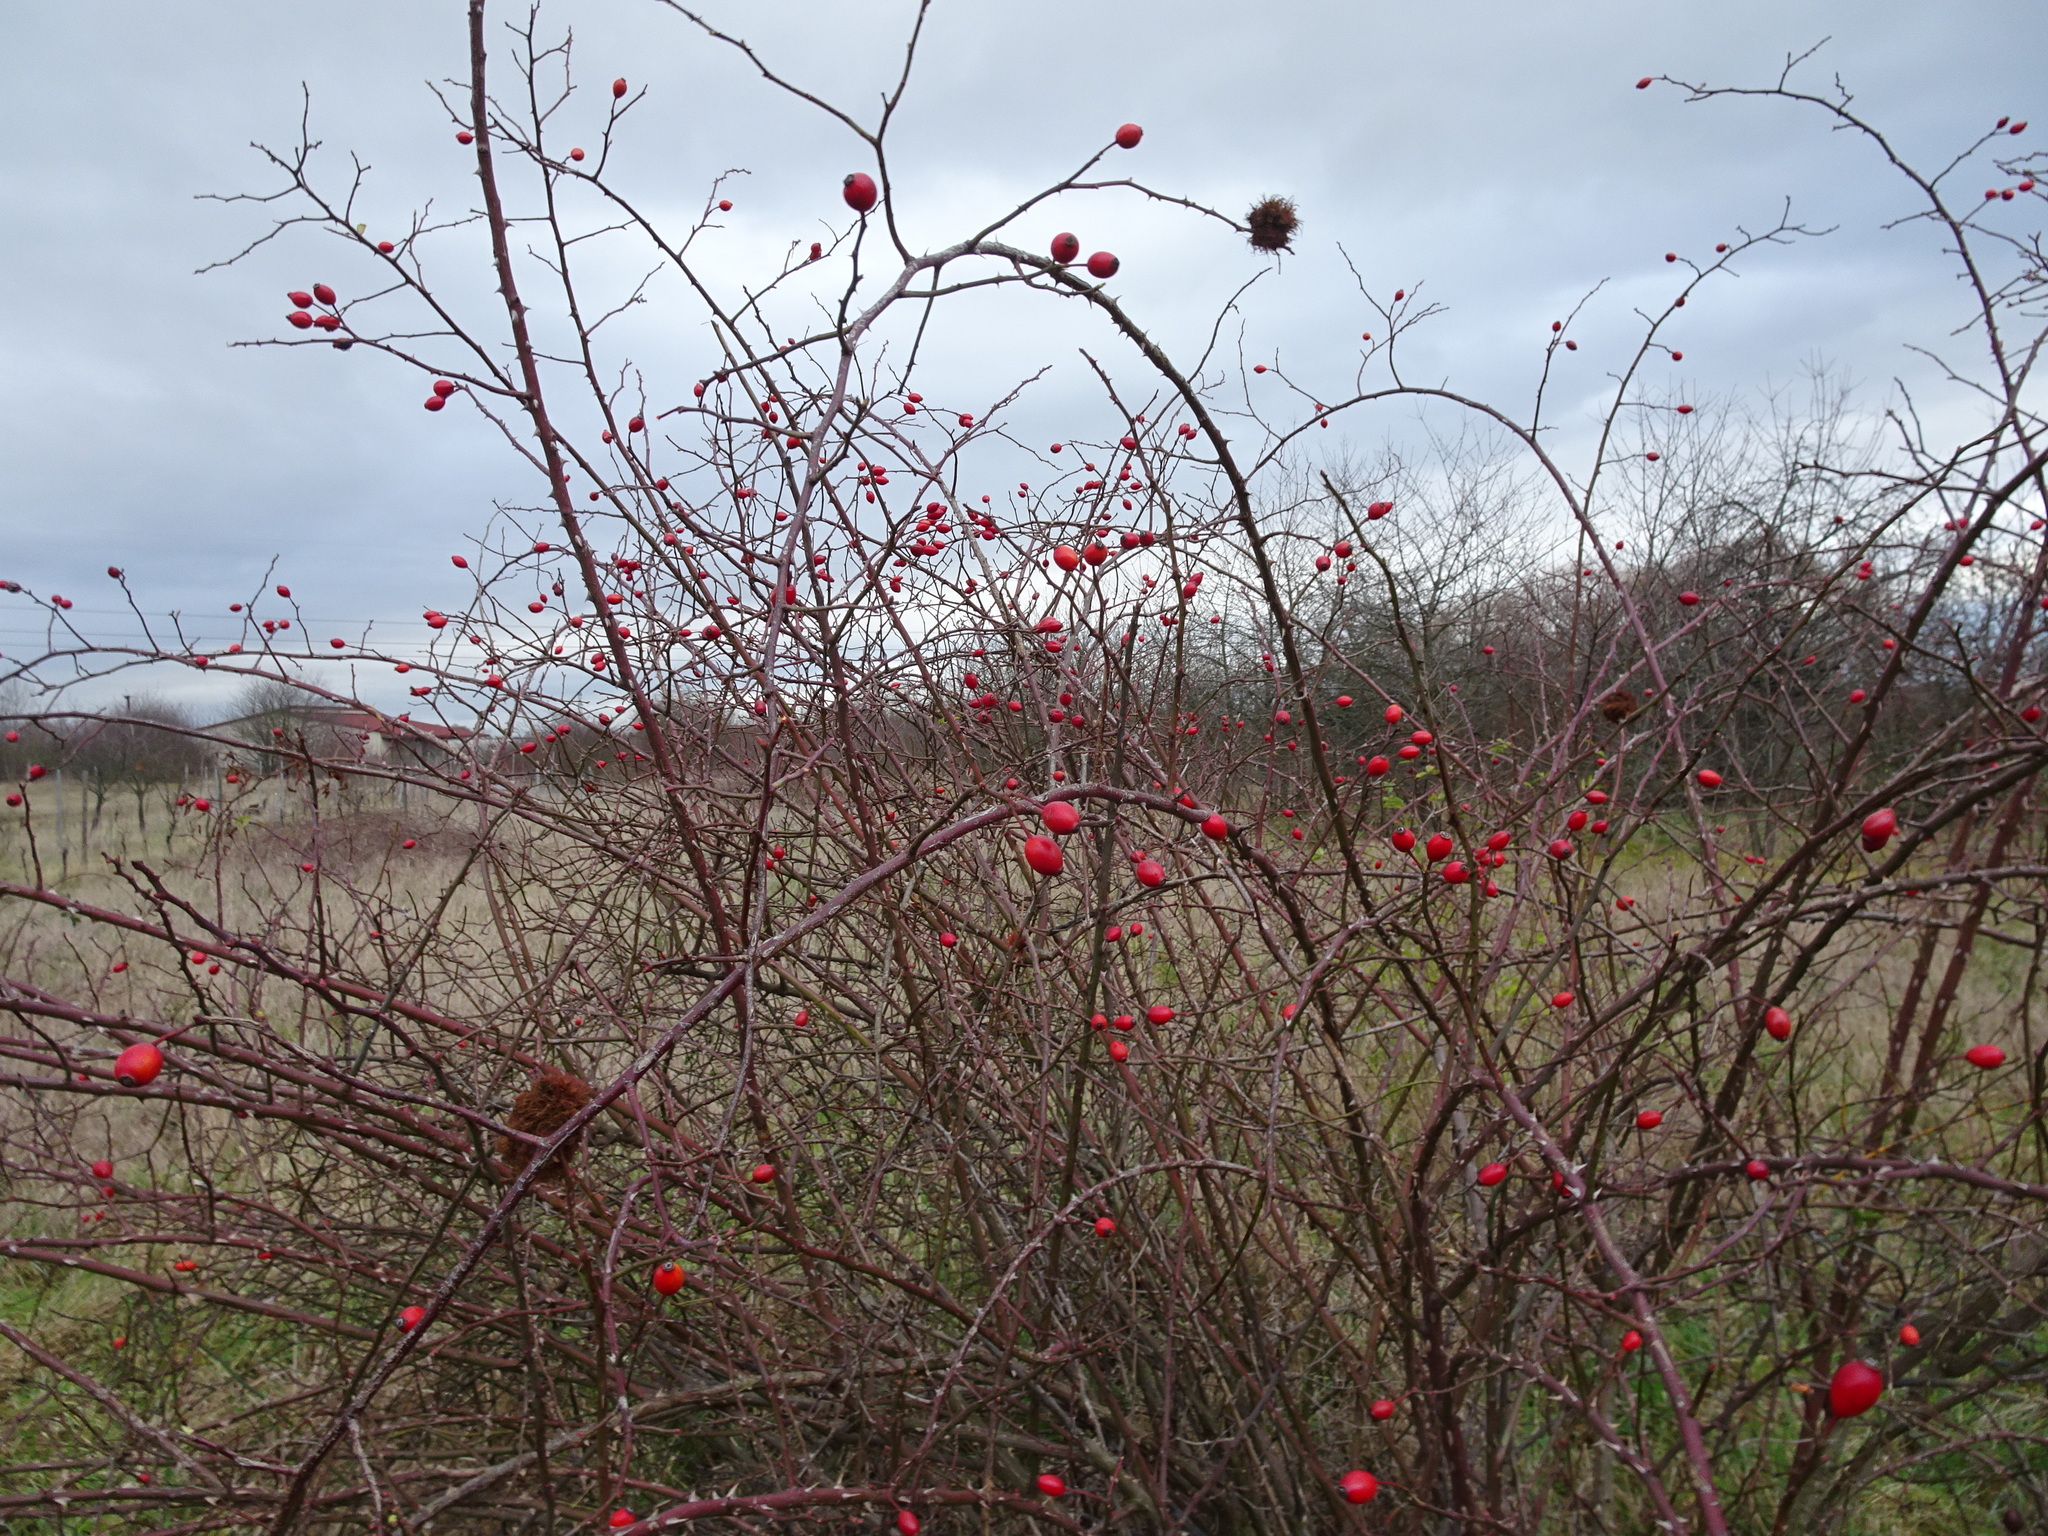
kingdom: Animalia
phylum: Arthropoda
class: Insecta
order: Hymenoptera
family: Cynipidae
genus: Diplolepis
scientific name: Diplolepis rosae
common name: Bedeguar gall
